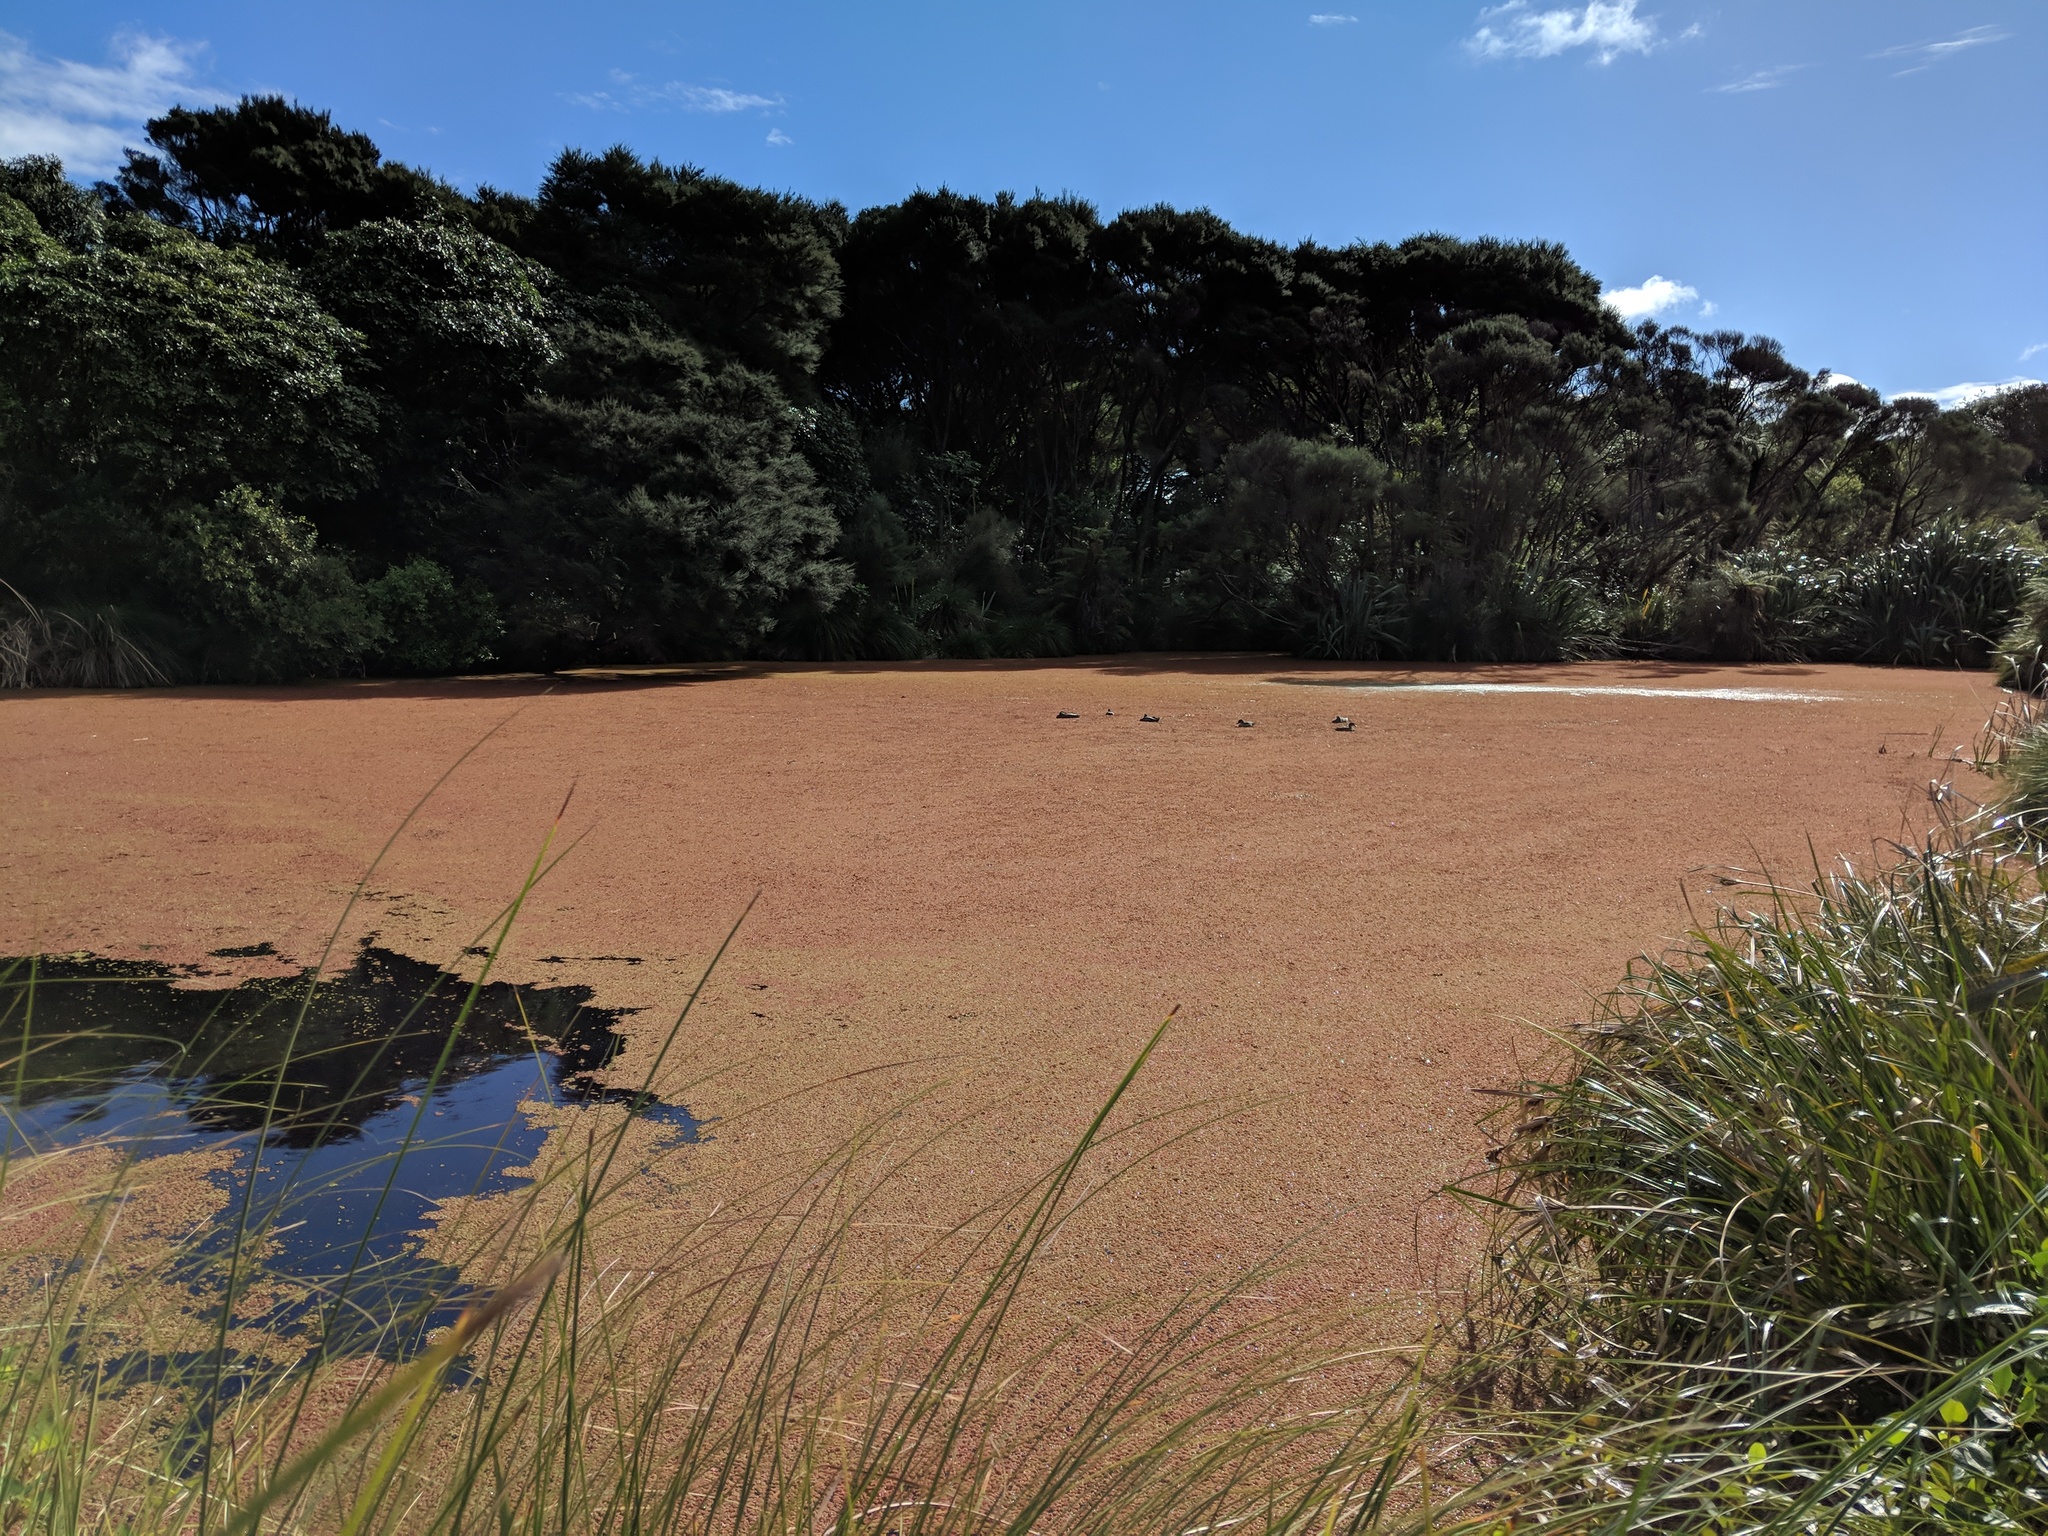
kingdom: Plantae
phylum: Tracheophyta
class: Polypodiopsida
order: Salviniales
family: Salviniaceae
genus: Azolla
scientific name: Azolla
